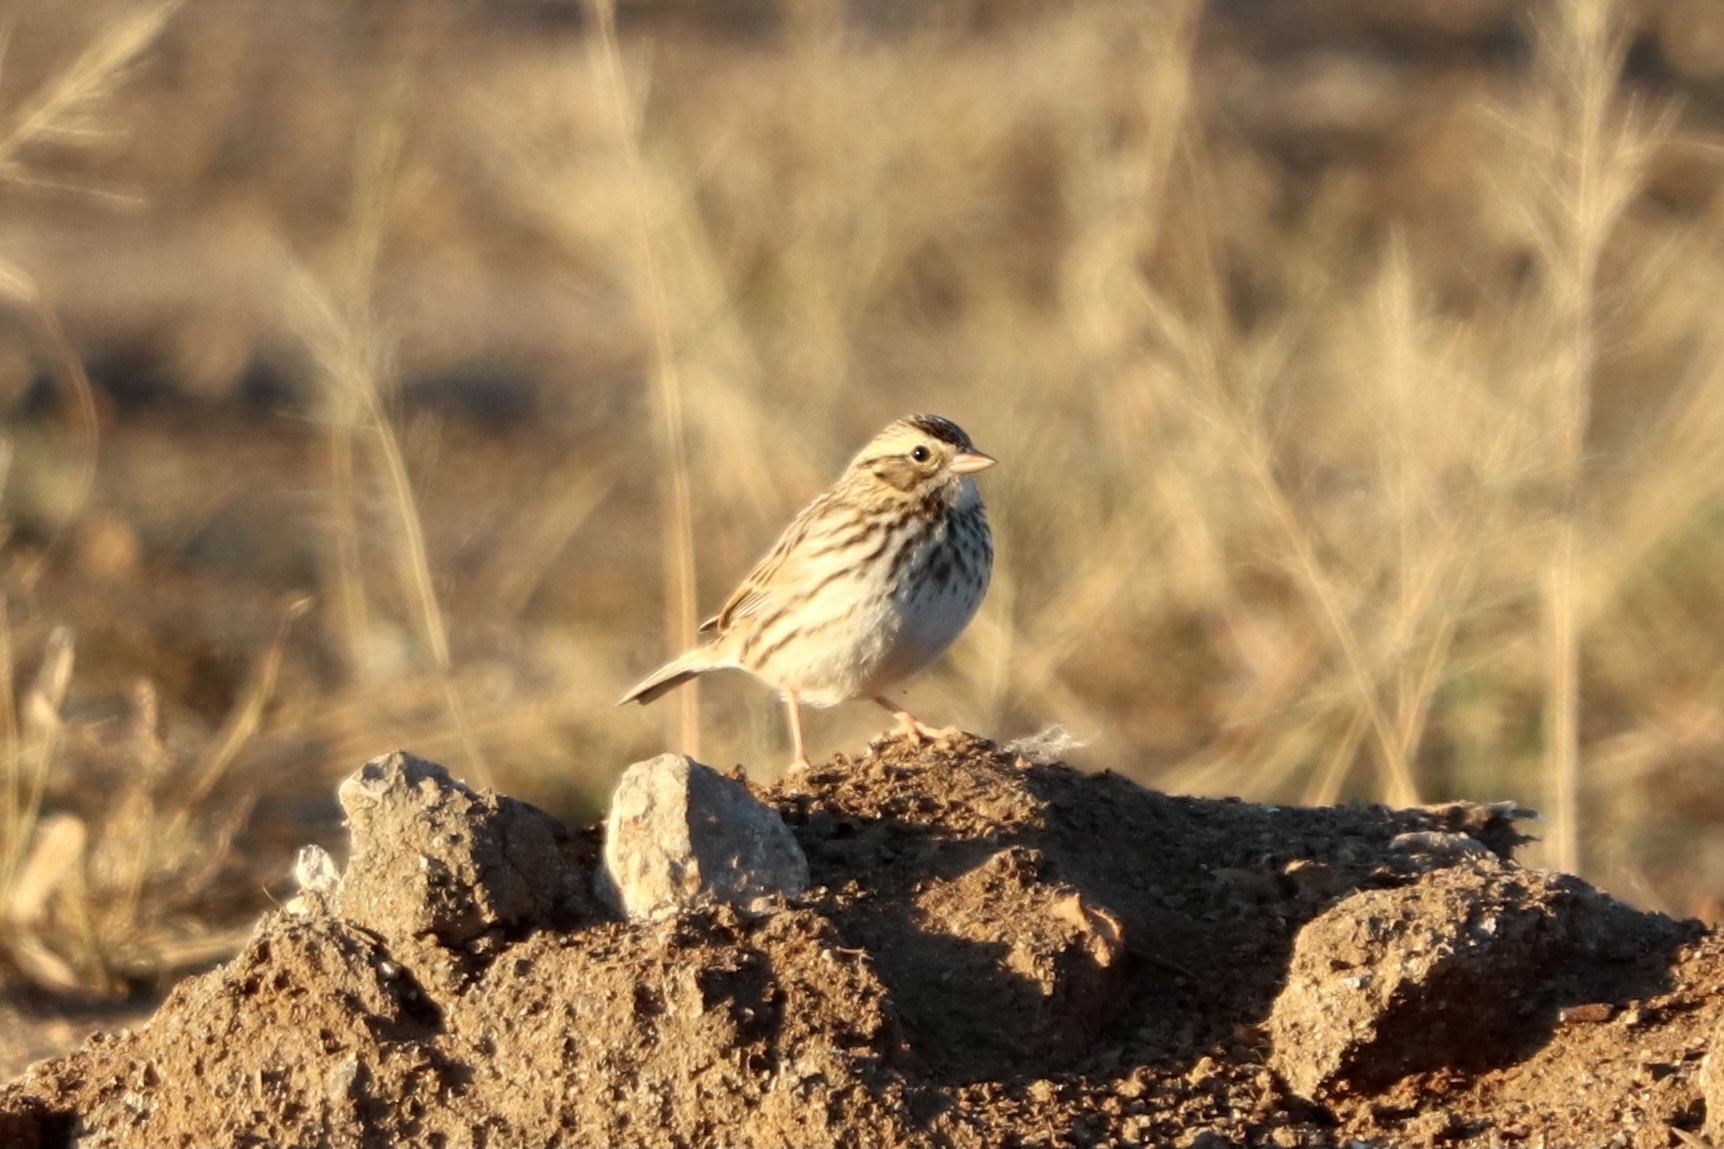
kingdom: Animalia
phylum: Chordata
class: Aves
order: Passeriformes
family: Passerellidae
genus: Passerculus
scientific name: Passerculus sandwichensis
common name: Savannah sparrow
